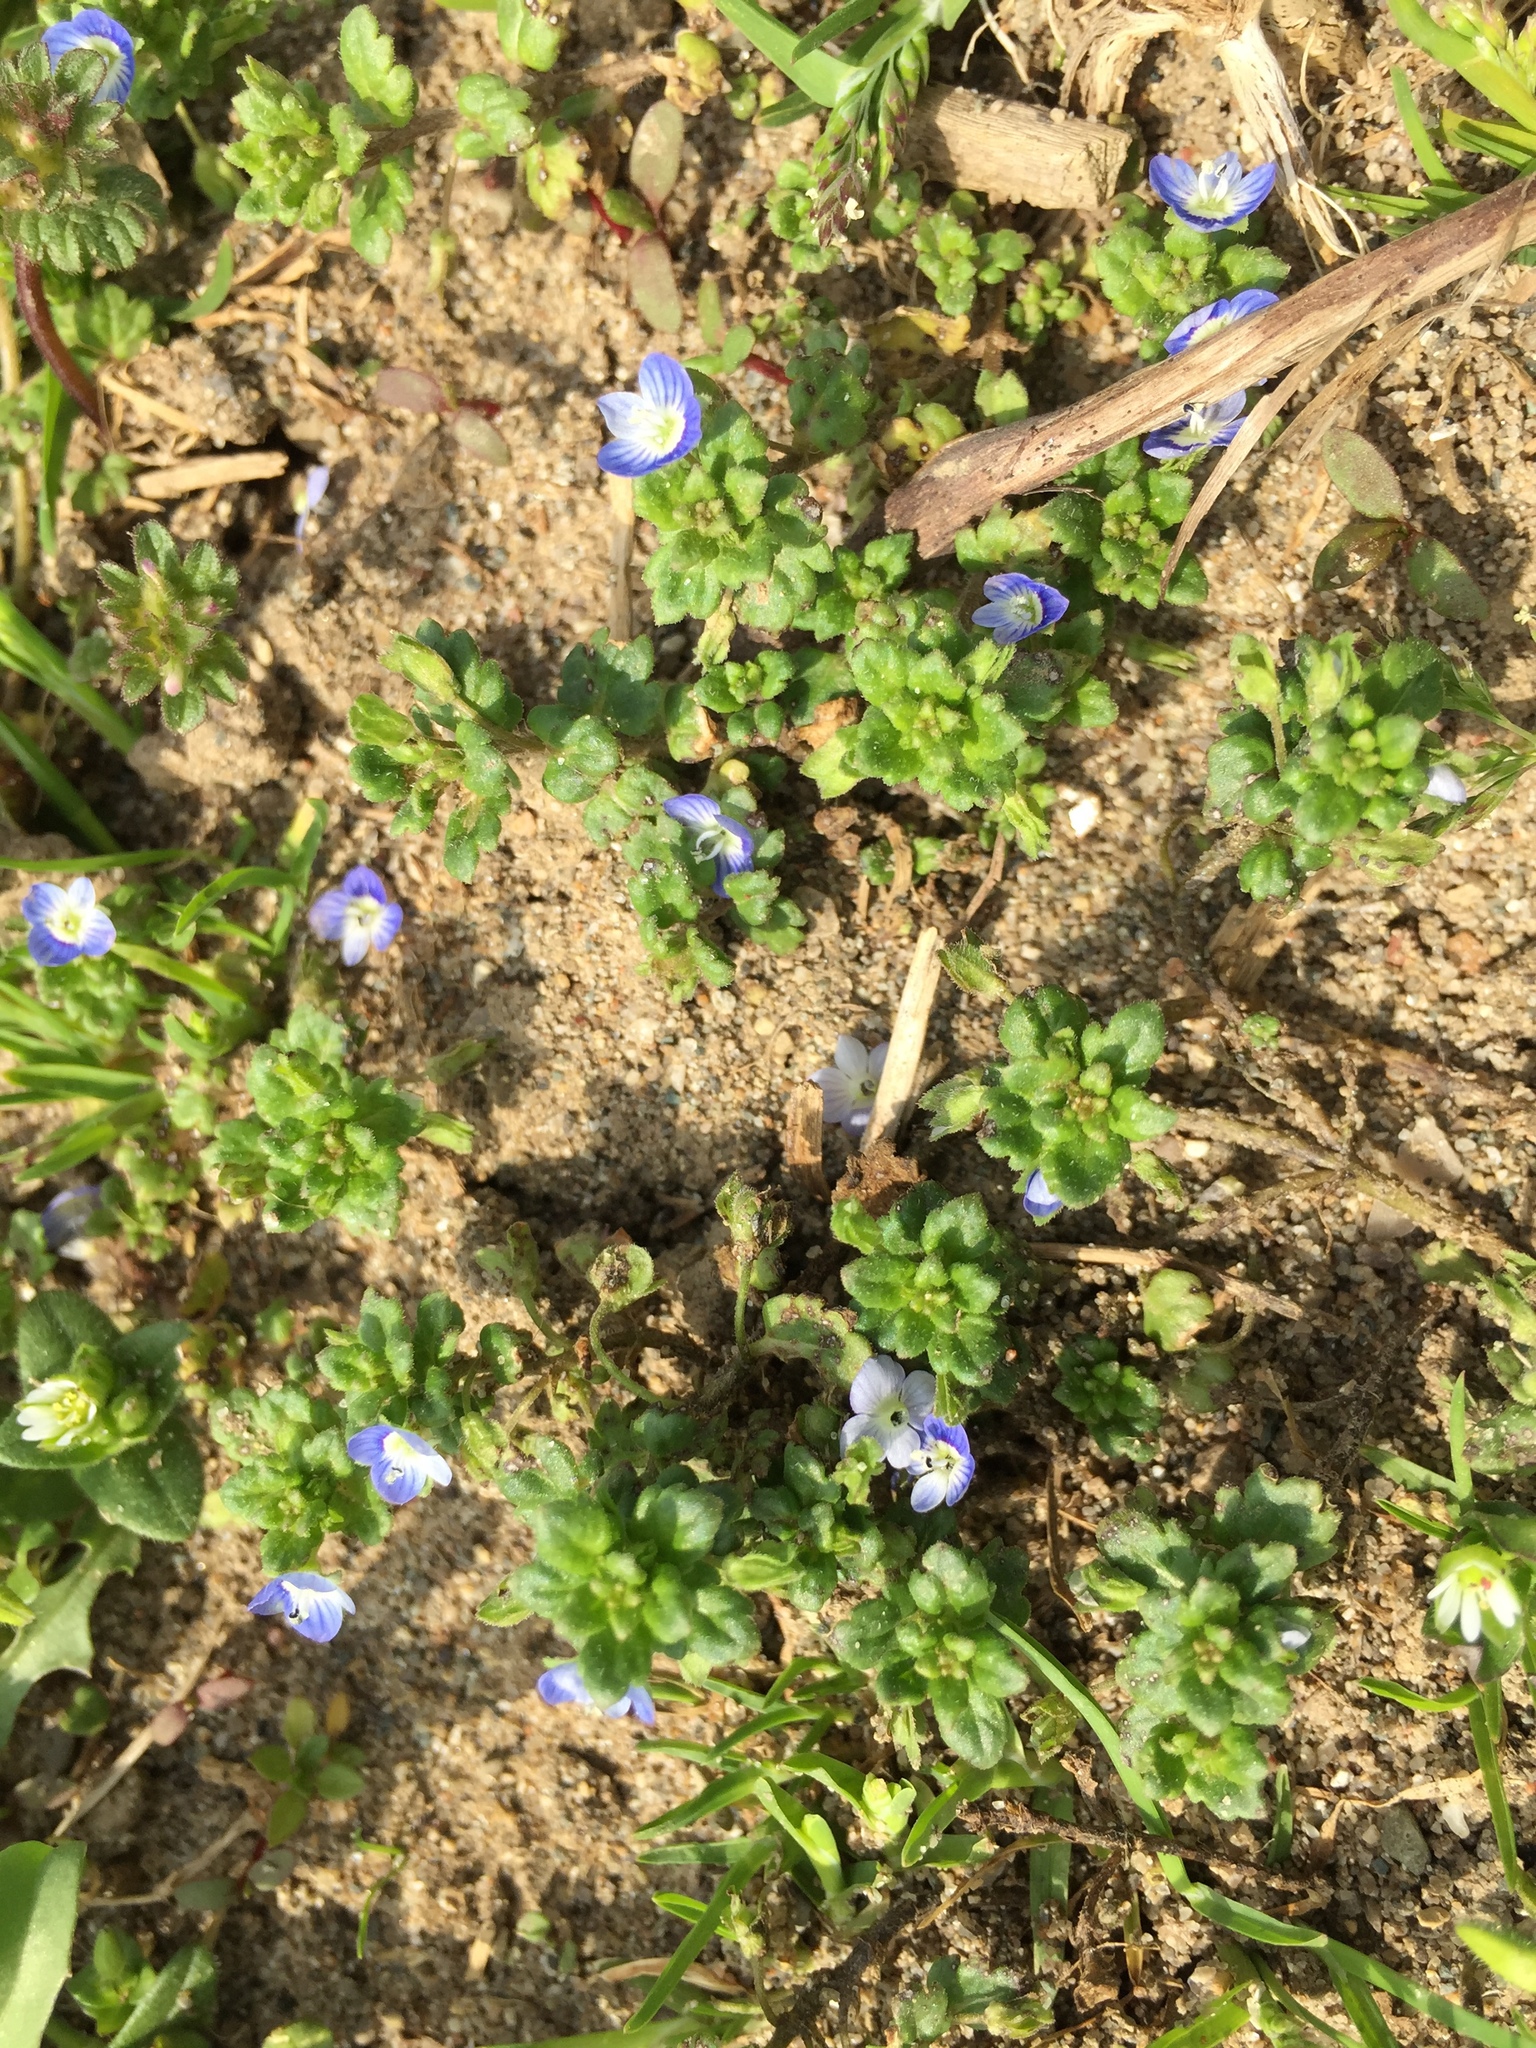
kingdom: Plantae
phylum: Tracheophyta
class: Magnoliopsida
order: Lamiales
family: Plantaginaceae
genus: Veronica
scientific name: Veronica polita
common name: Grey field-speedwell
